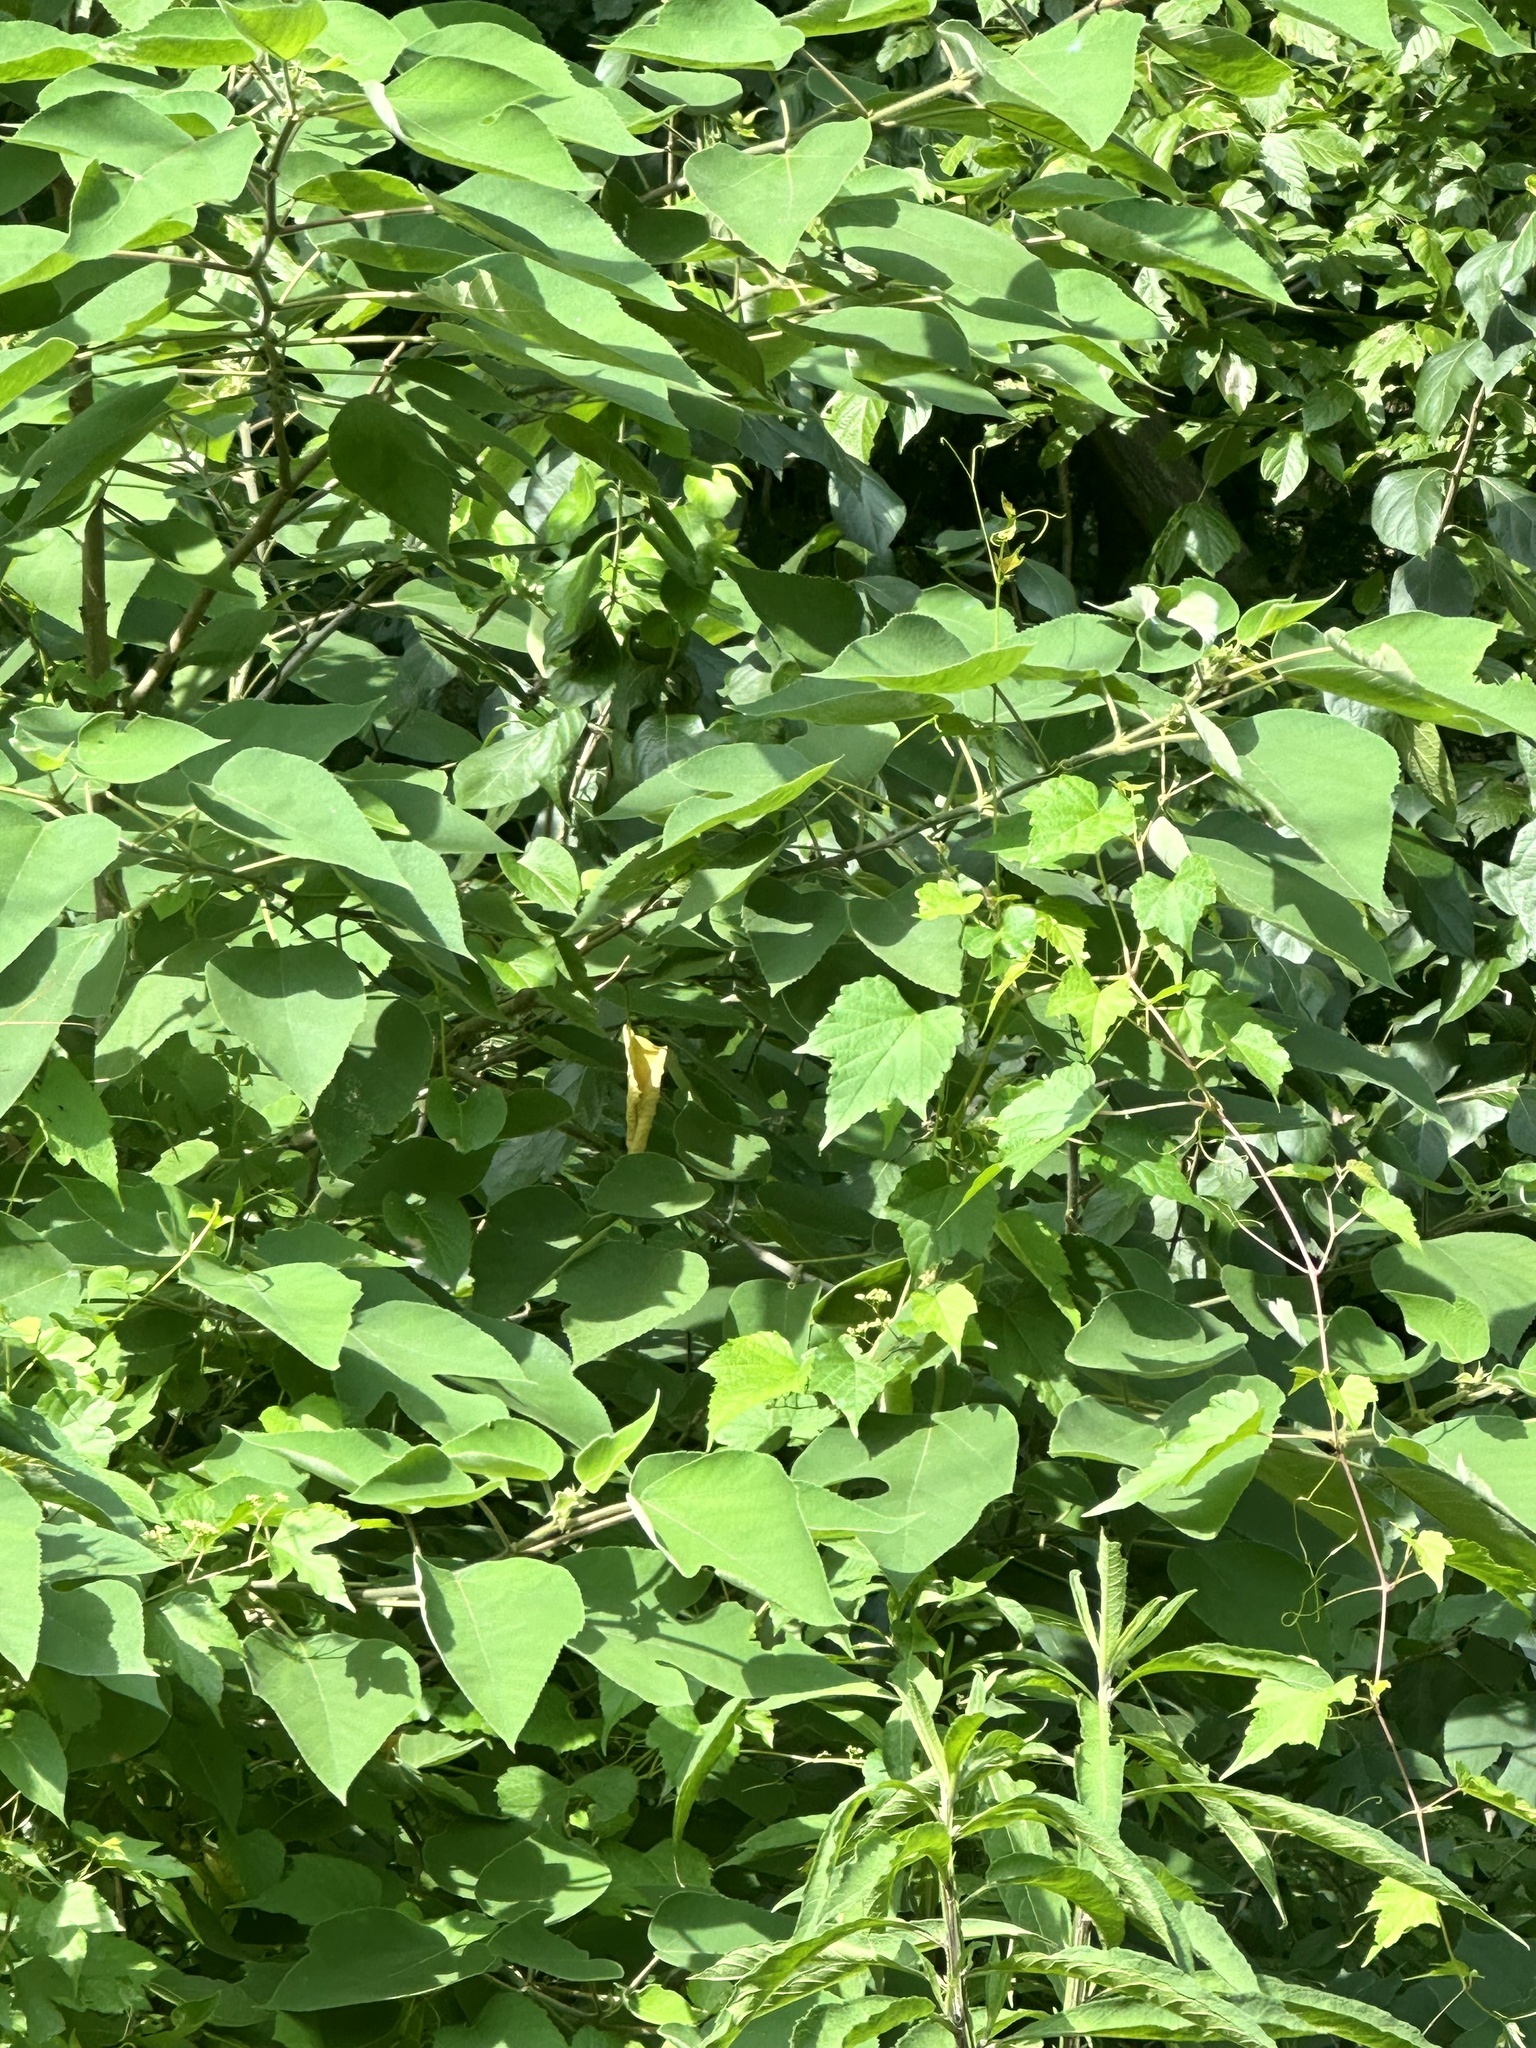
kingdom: Plantae
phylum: Tracheophyta
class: Magnoliopsida
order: Rosales
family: Moraceae
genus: Broussonetia
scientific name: Broussonetia papyrifera
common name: Paper mulberry
